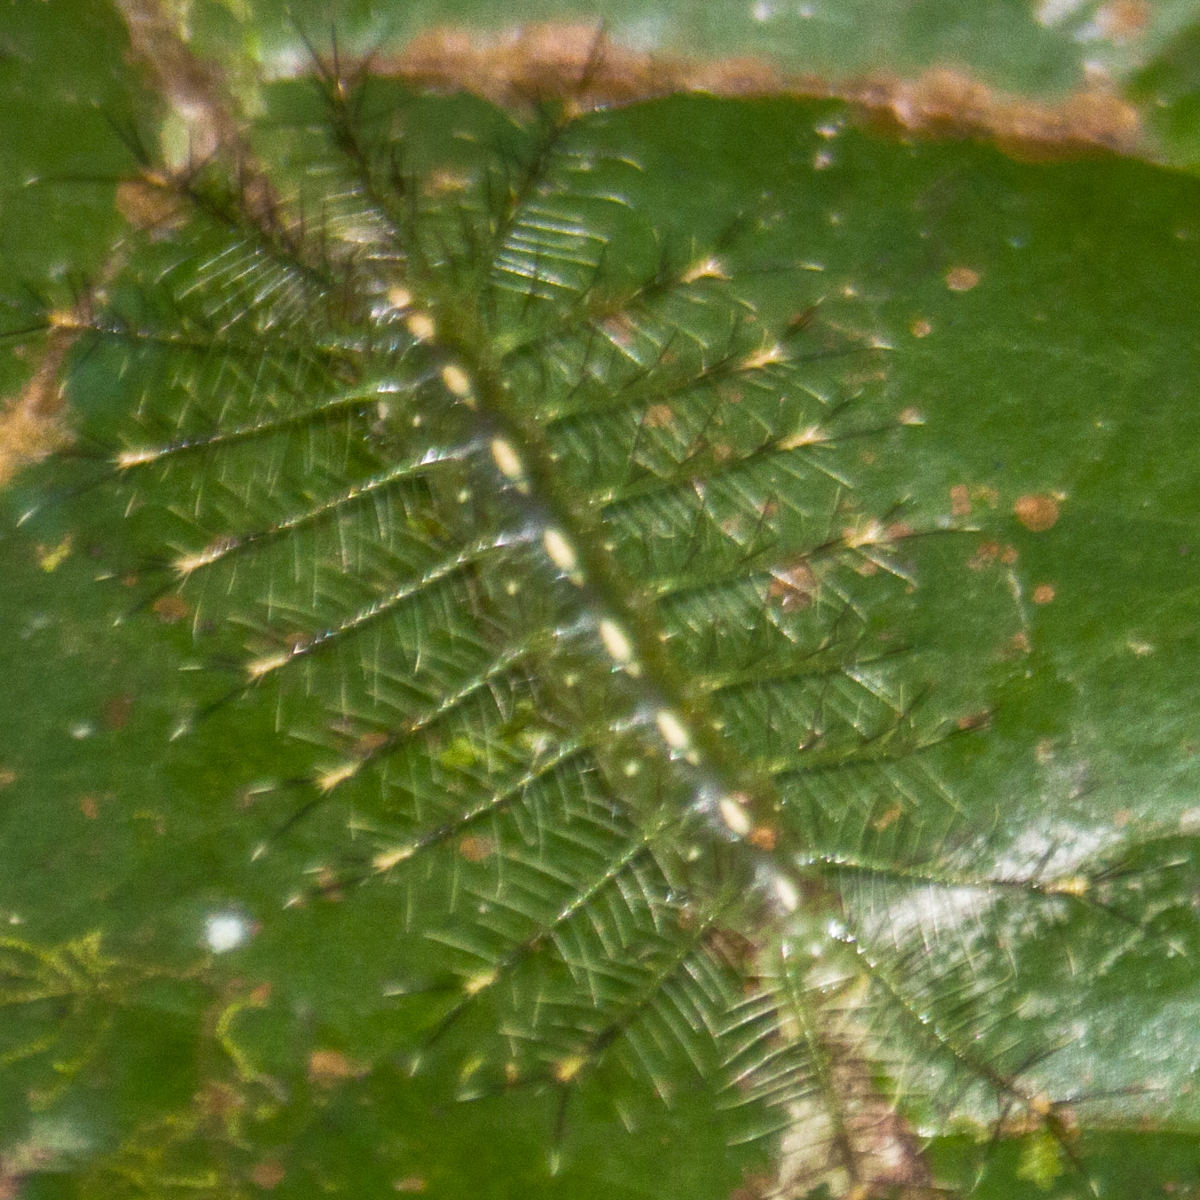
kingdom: Animalia
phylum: Arthropoda
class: Insecta
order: Lepidoptera
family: Nymphalidae
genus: Euthalia
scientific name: Euthalia monina
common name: Powdered baron
